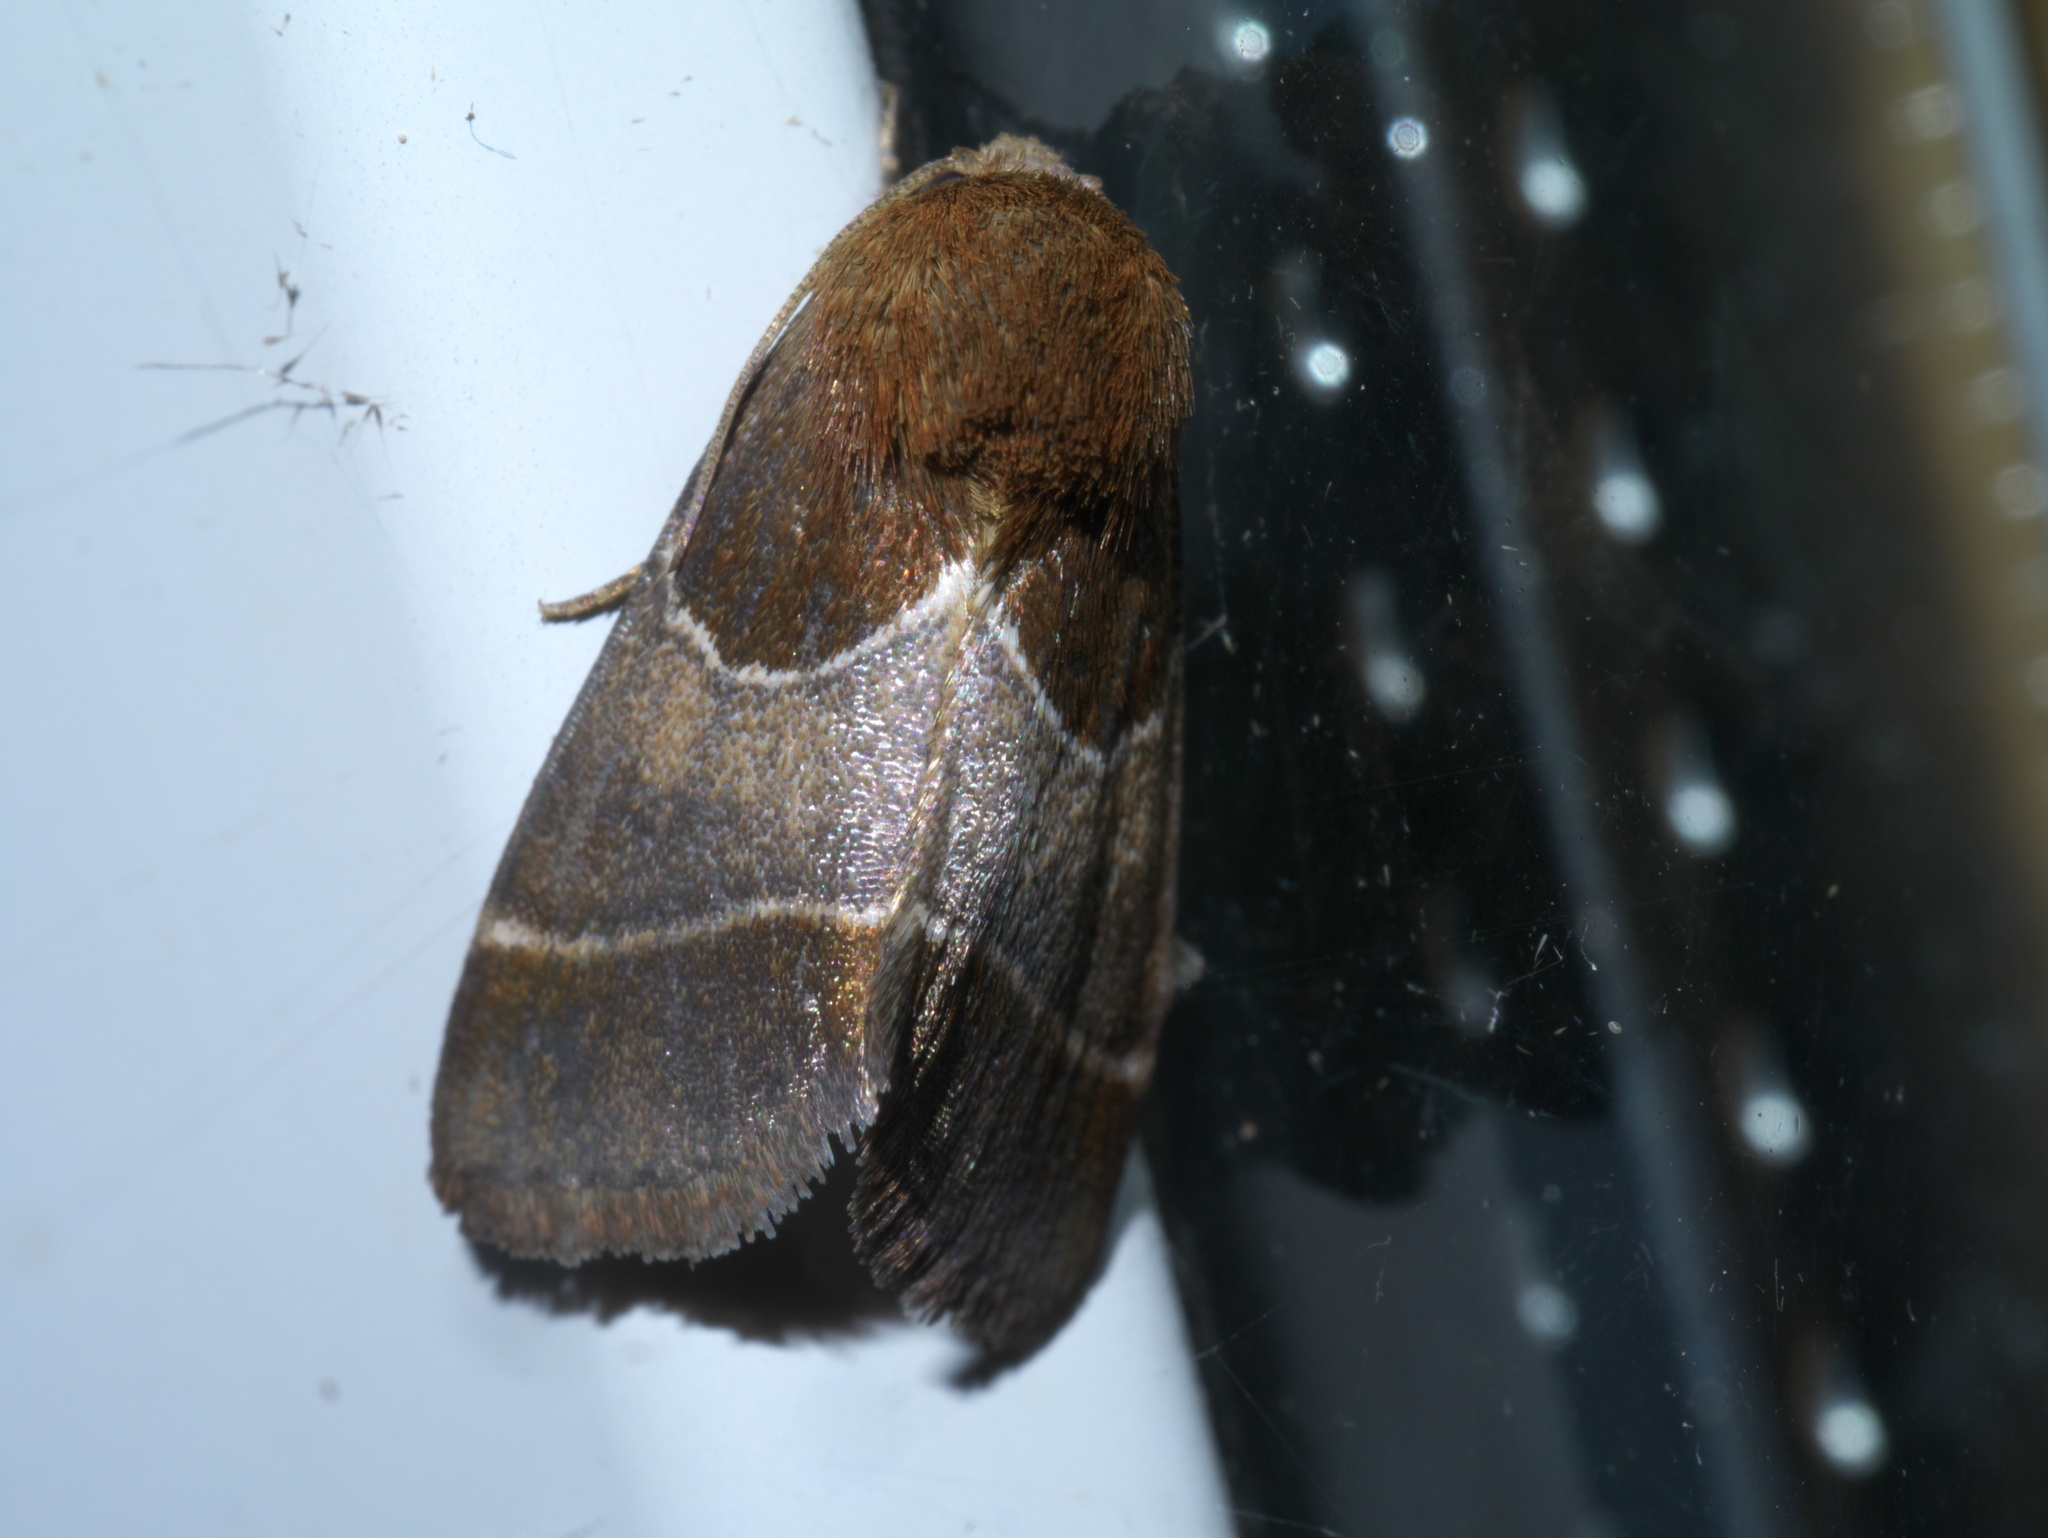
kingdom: Animalia
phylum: Arthropoda
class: Insecta
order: Lepidoptera
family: Noctuidae
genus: Schinia
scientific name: Schinia arcigera
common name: Arcigera flower moth
